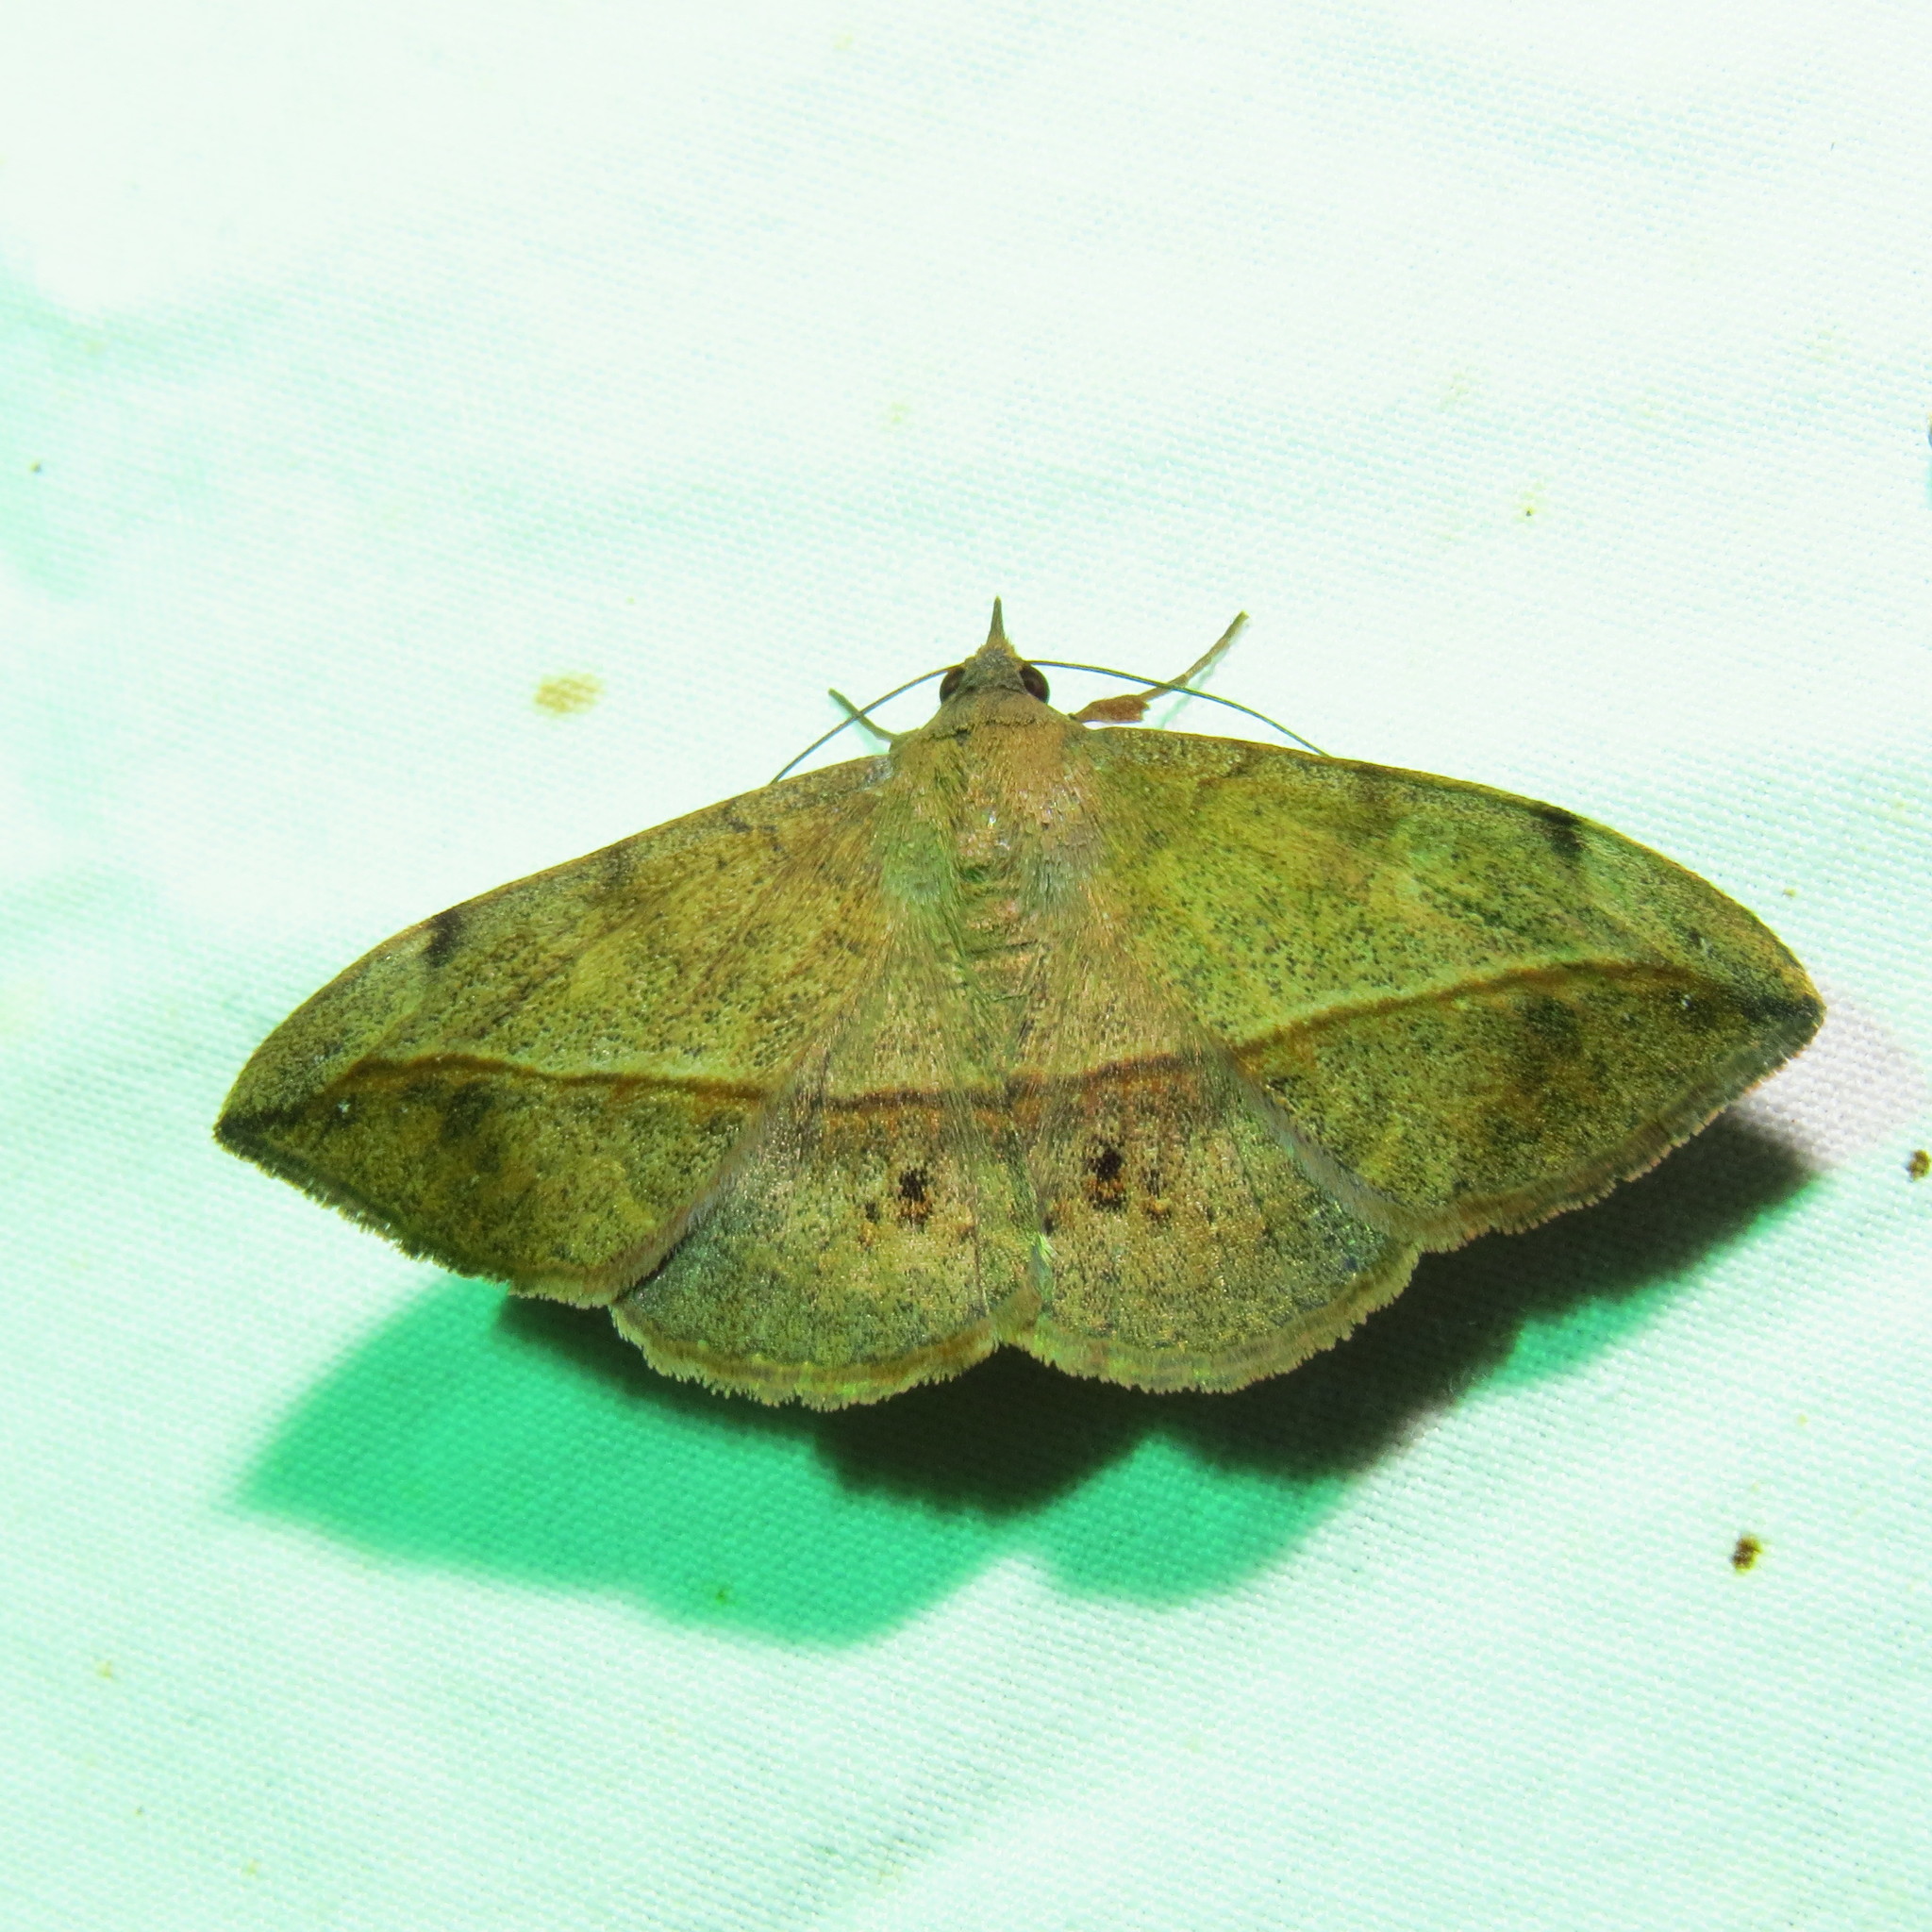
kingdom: Animalia
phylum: Arthropoda
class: Insecta
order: Lepidoptera
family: Erebidae
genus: Anticarsia
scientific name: Anticarsia gemmatalis
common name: Cutworm moth
